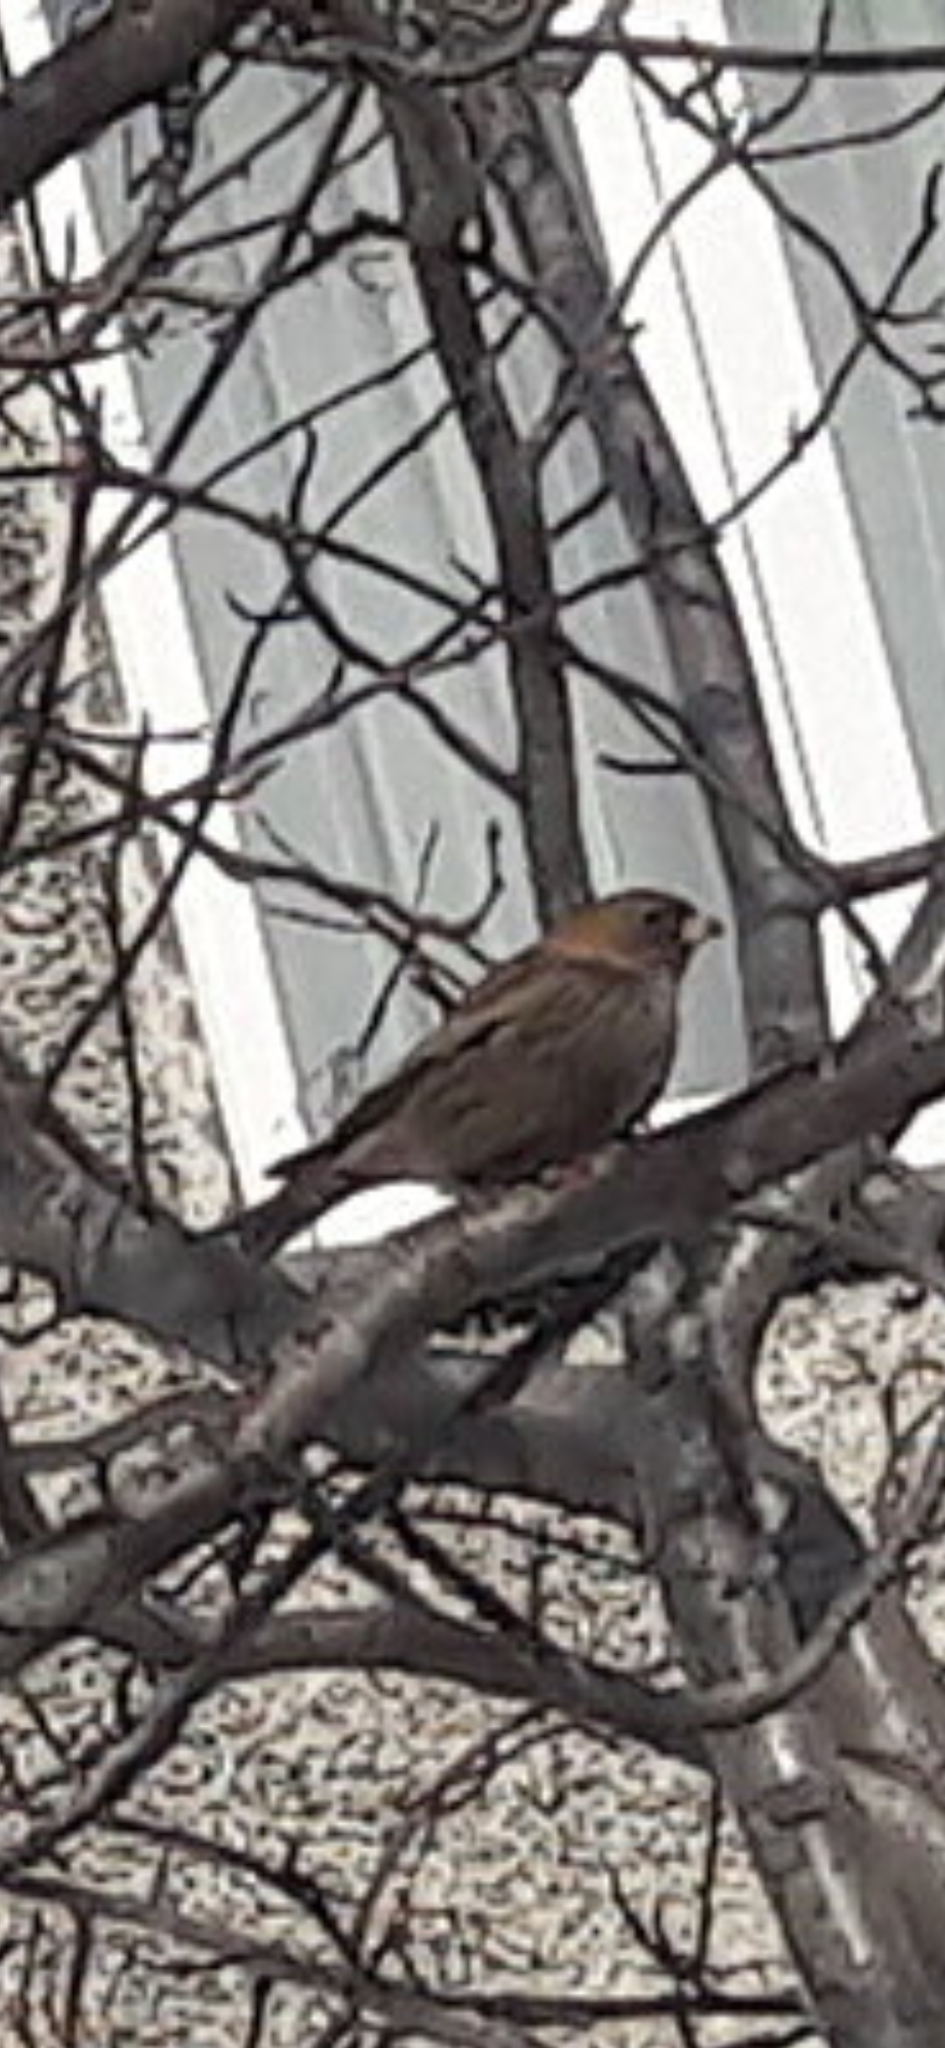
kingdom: Animalia
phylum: Chordata
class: Aves
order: Passeriformes
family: Fringillidae
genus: Leucosticte
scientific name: Leucosticte arctoa
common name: Asian rosy finch
